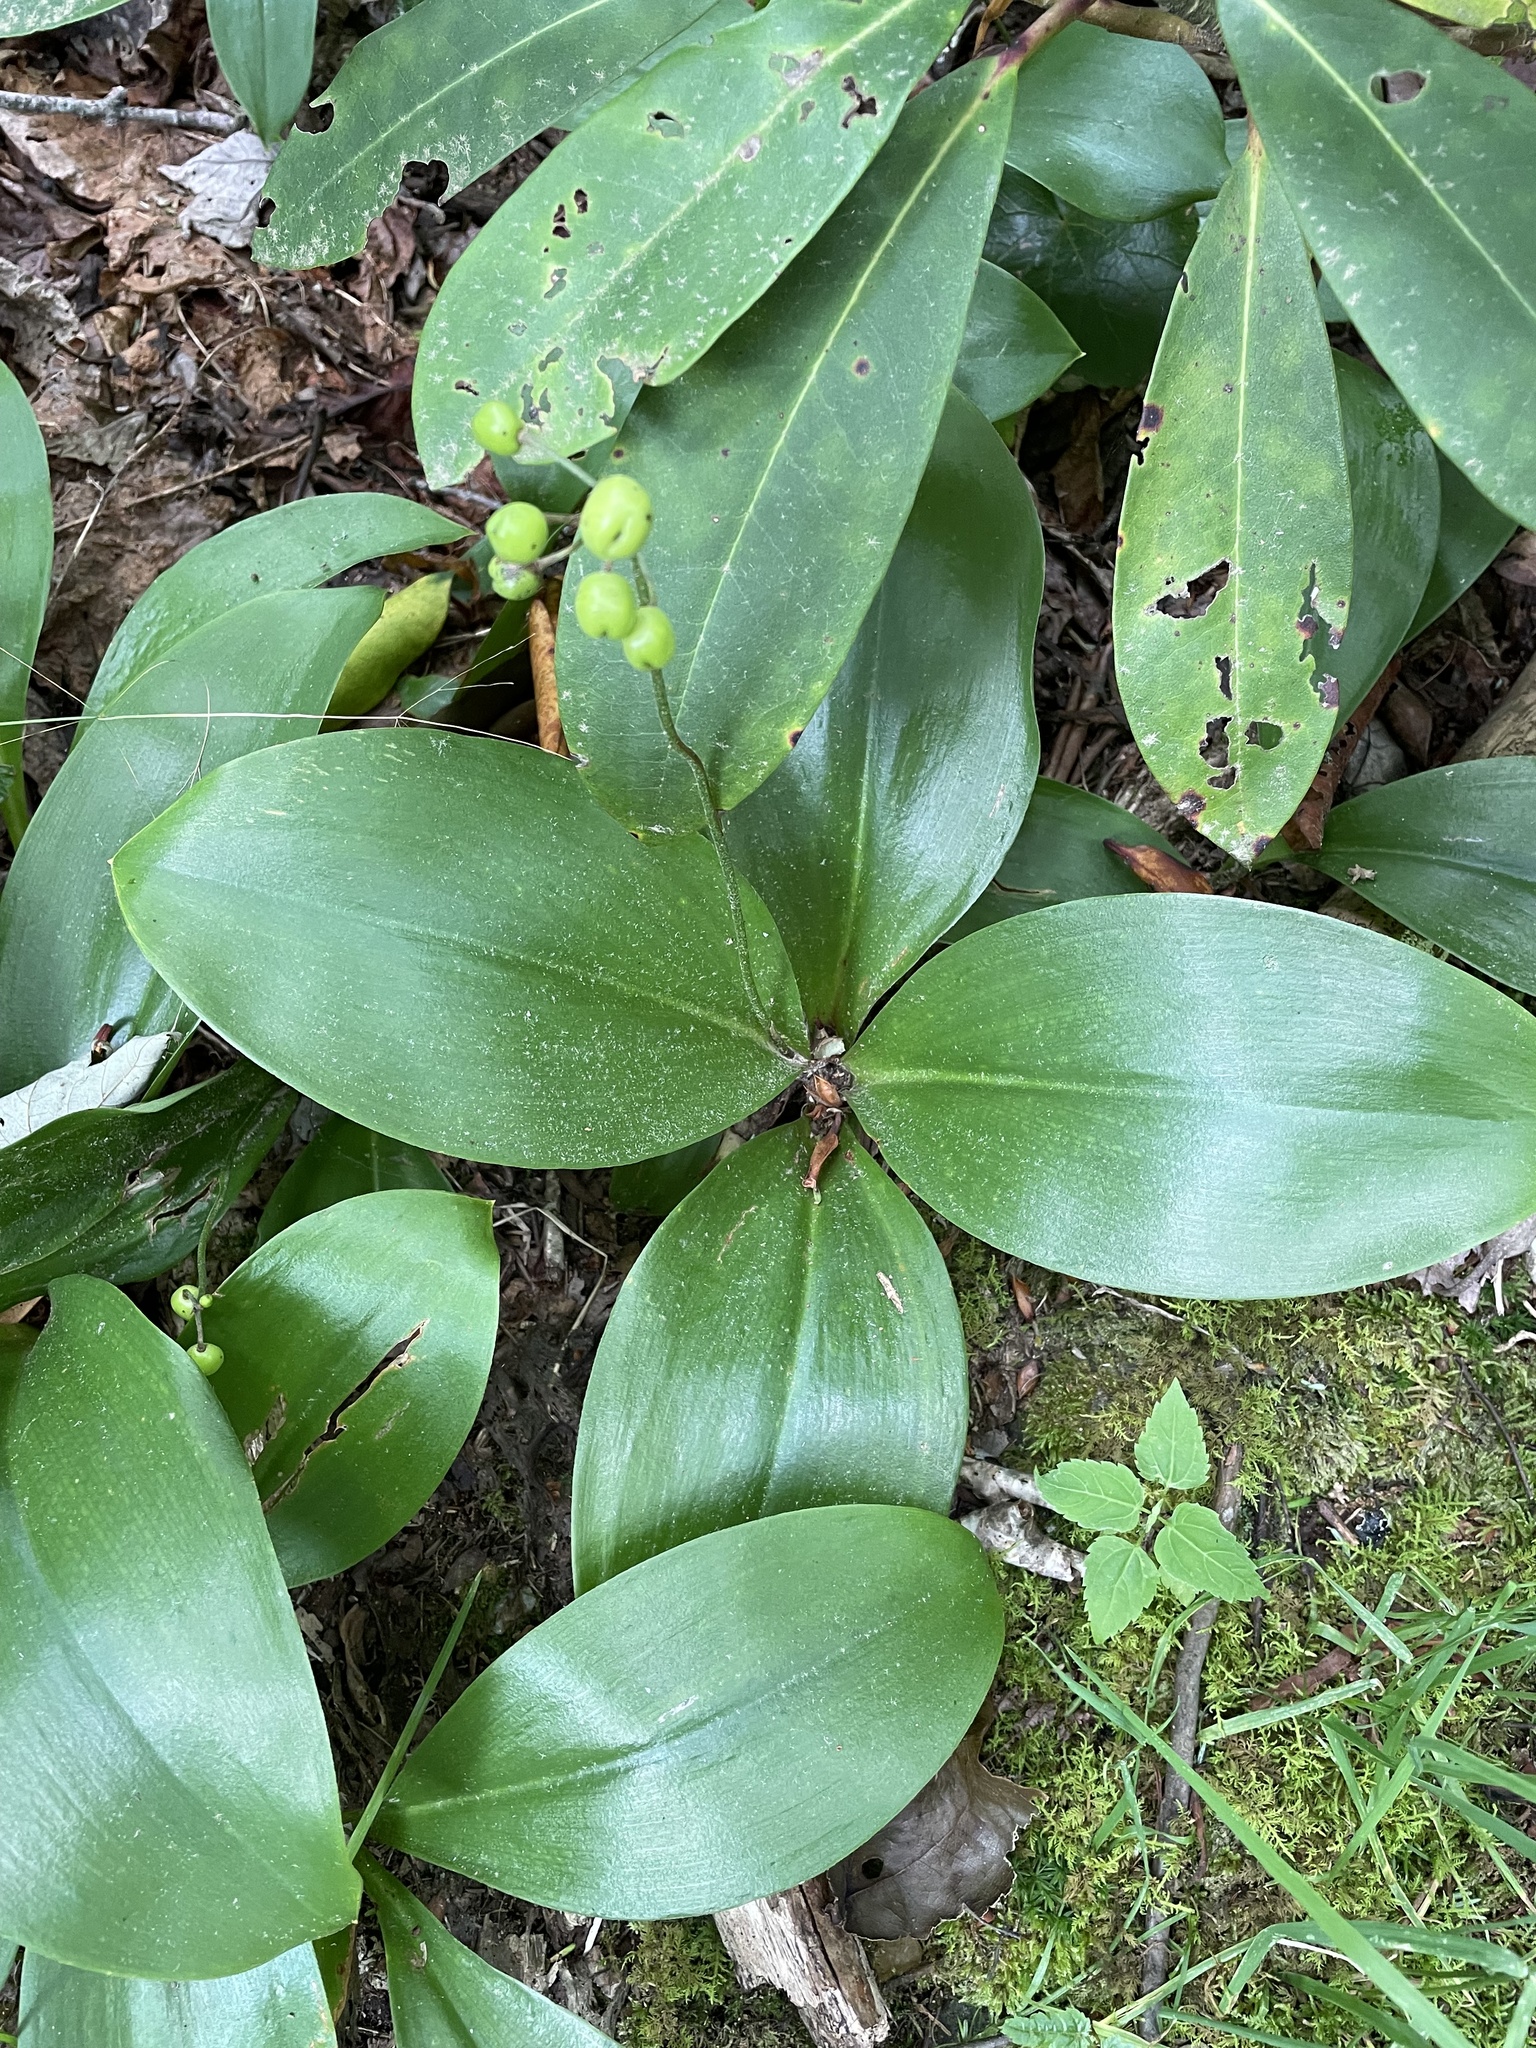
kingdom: Plantae
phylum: Tracheophyta
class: Liliopsida
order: Liliales
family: Liliaceae
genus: Clintonia
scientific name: Clintonia borealis
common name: Yellow clintonia
